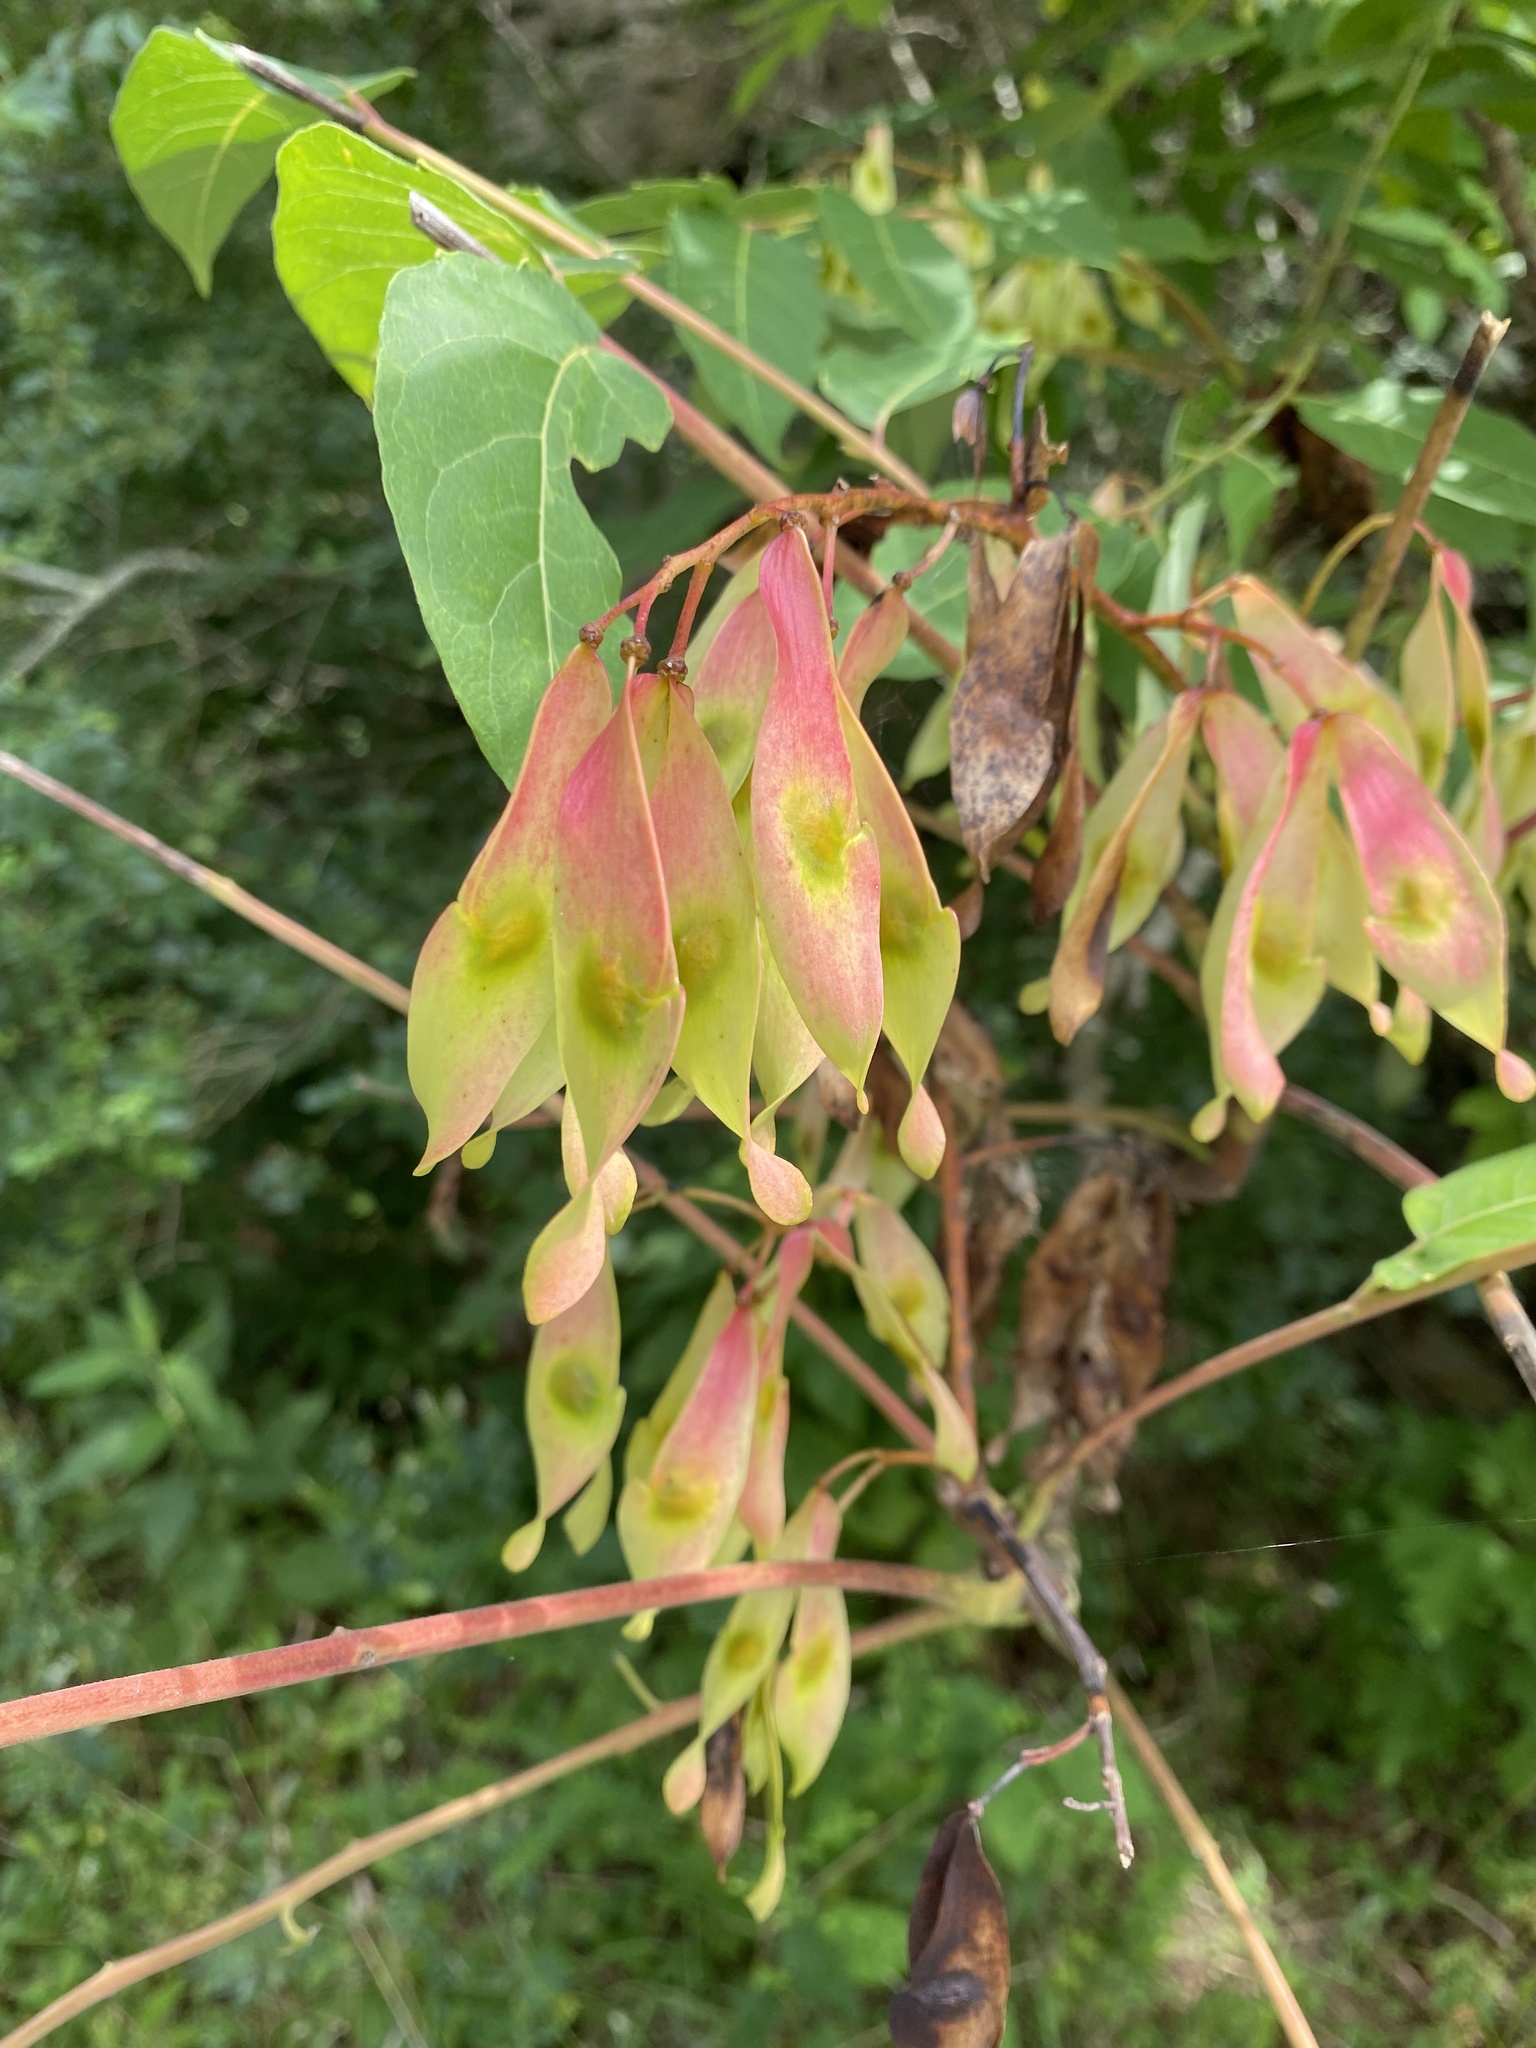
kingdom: Plantae
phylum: Tracheophyta
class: Magnoliopsida
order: Sapindales
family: Simaroubaceae
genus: Ailanthus
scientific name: Ailanthus altissima
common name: Tree-of-heaven
